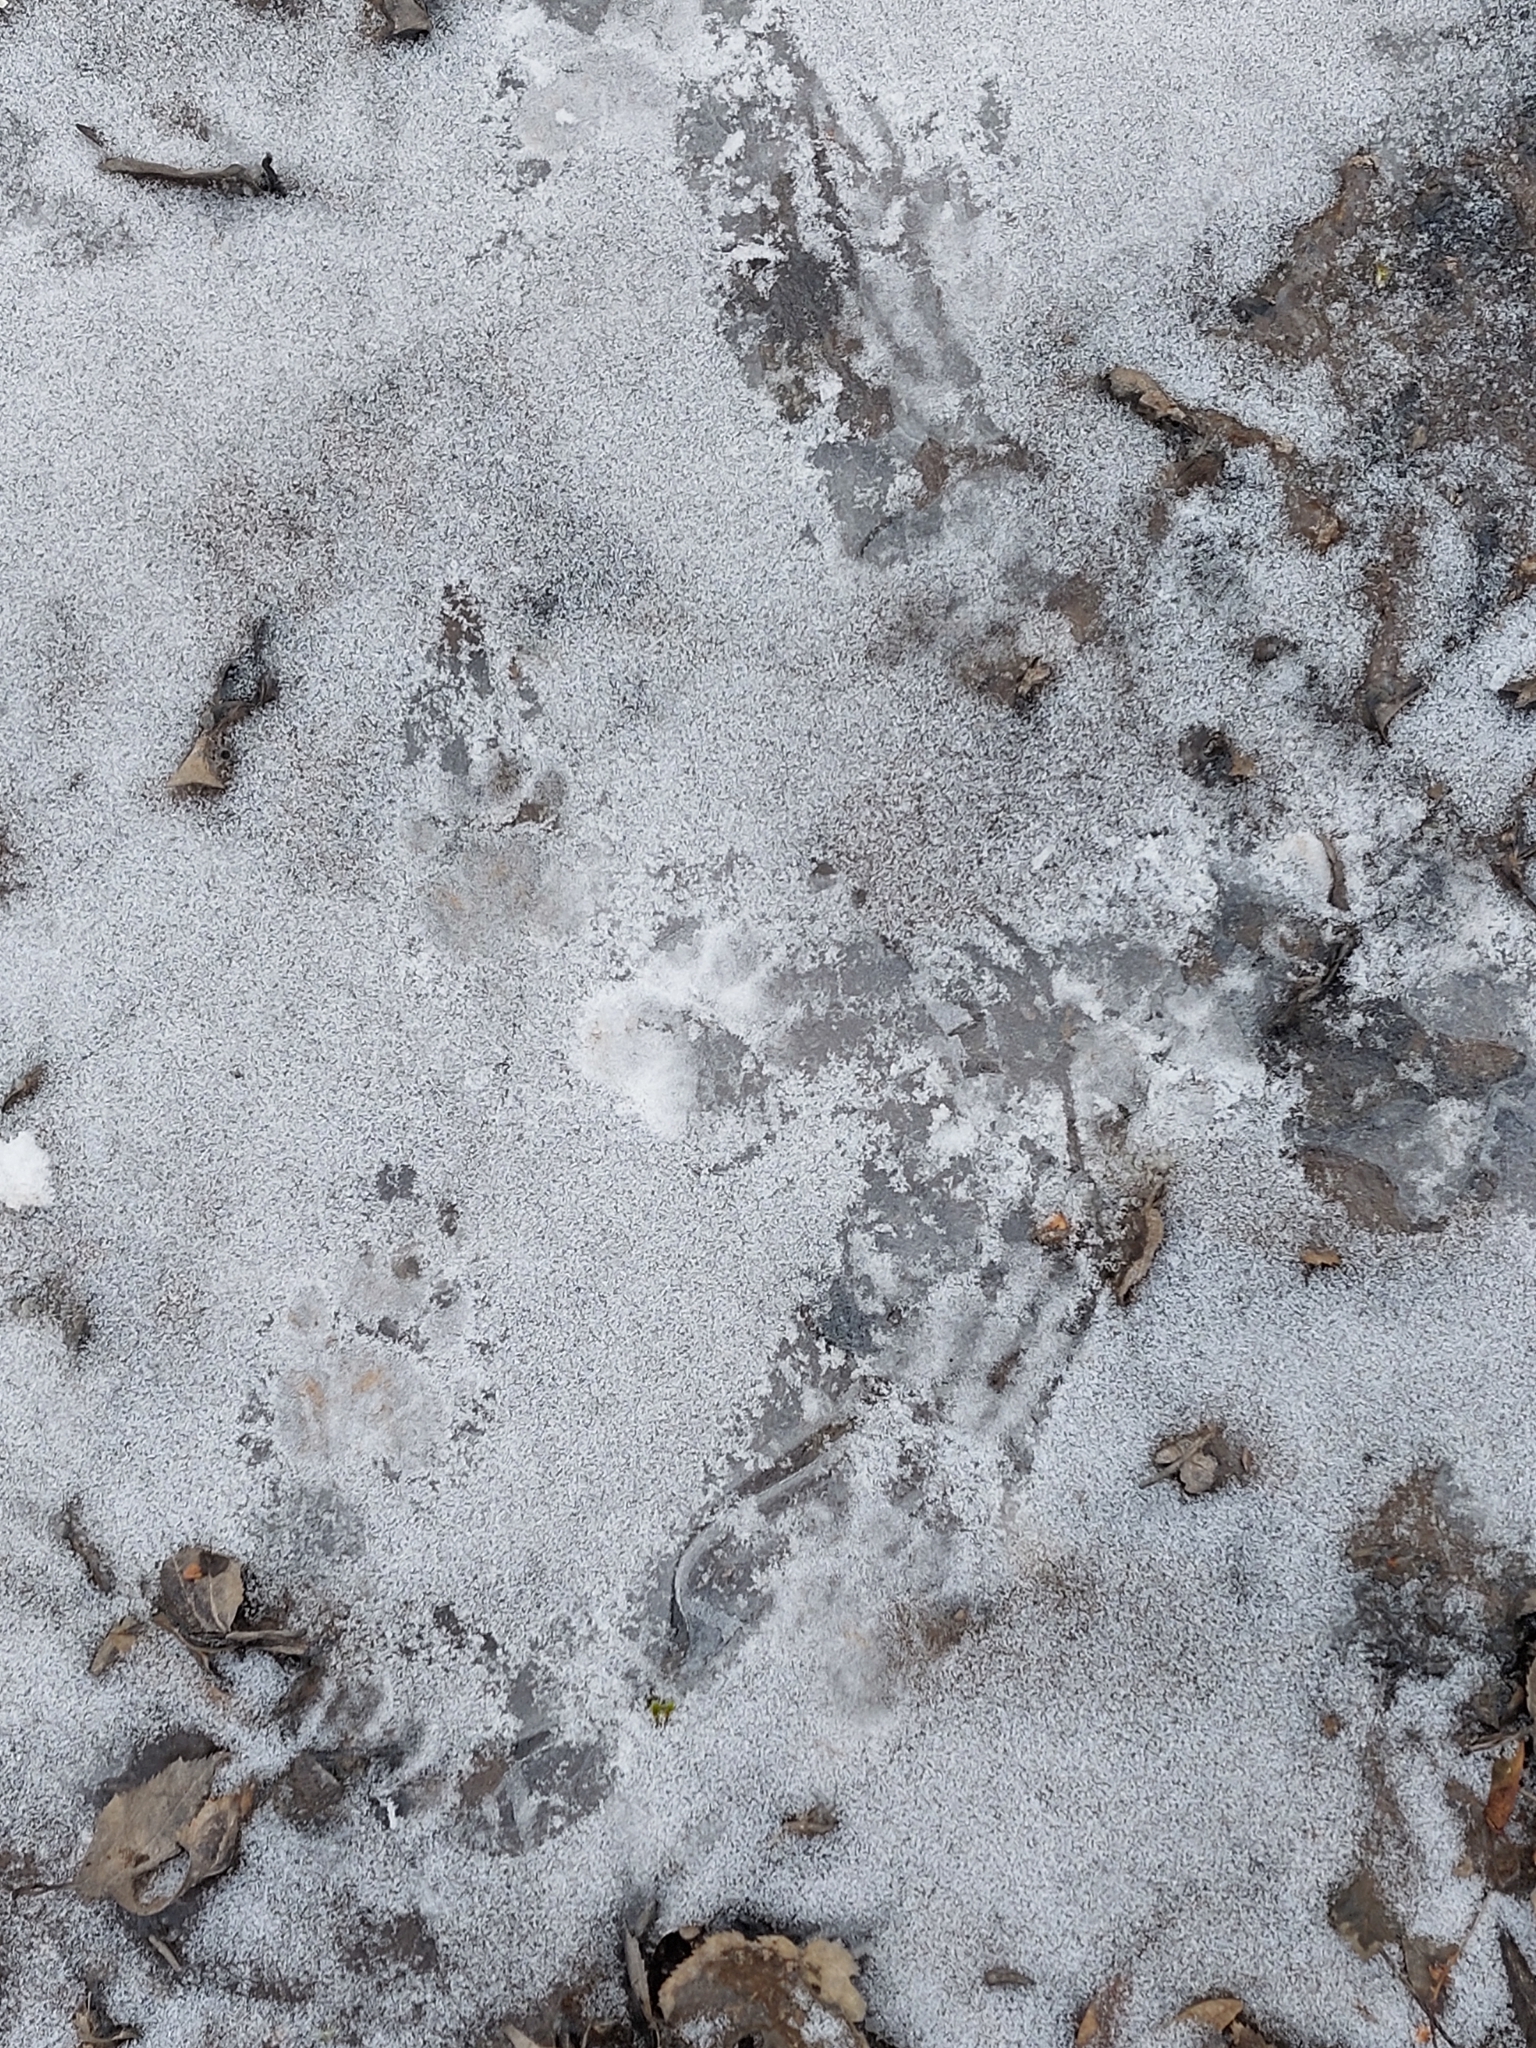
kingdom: Animalia
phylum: Chordata
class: Mammalia
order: Carnivora
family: Mustelidae
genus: Meles
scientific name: Meles meles
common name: Eurasian badger
